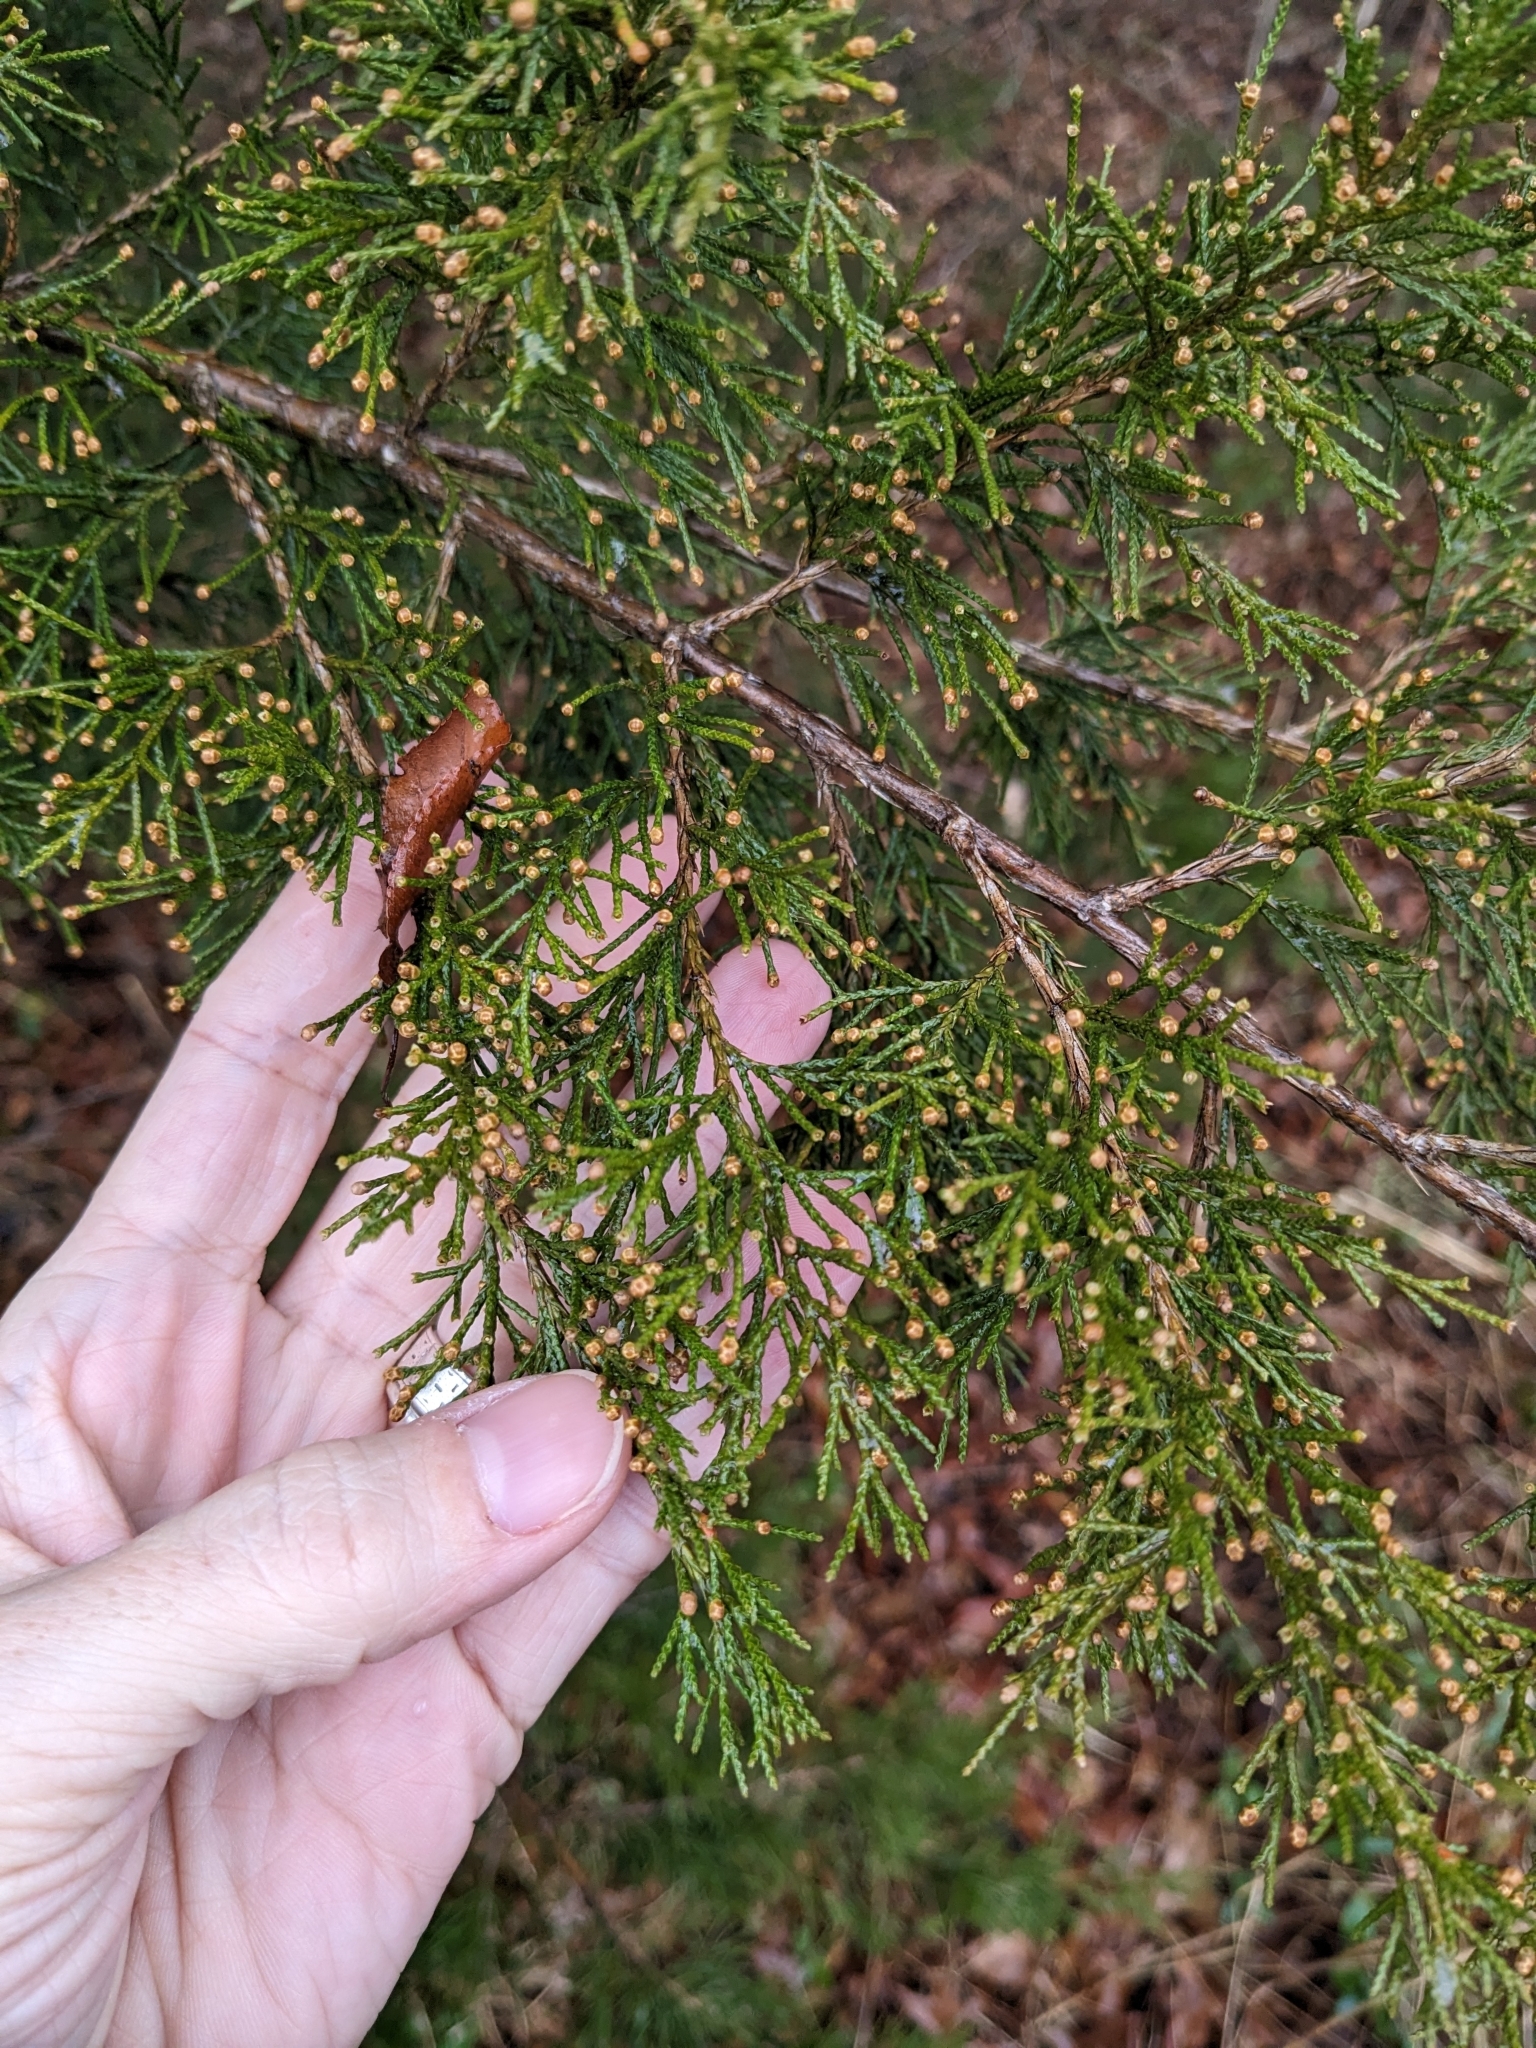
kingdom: Plantae
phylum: Tracheophyta
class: Pinopsida
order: Pinales
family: Cupressaceae
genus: Juniperus
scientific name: Juniperus virginiana
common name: Red juniper
